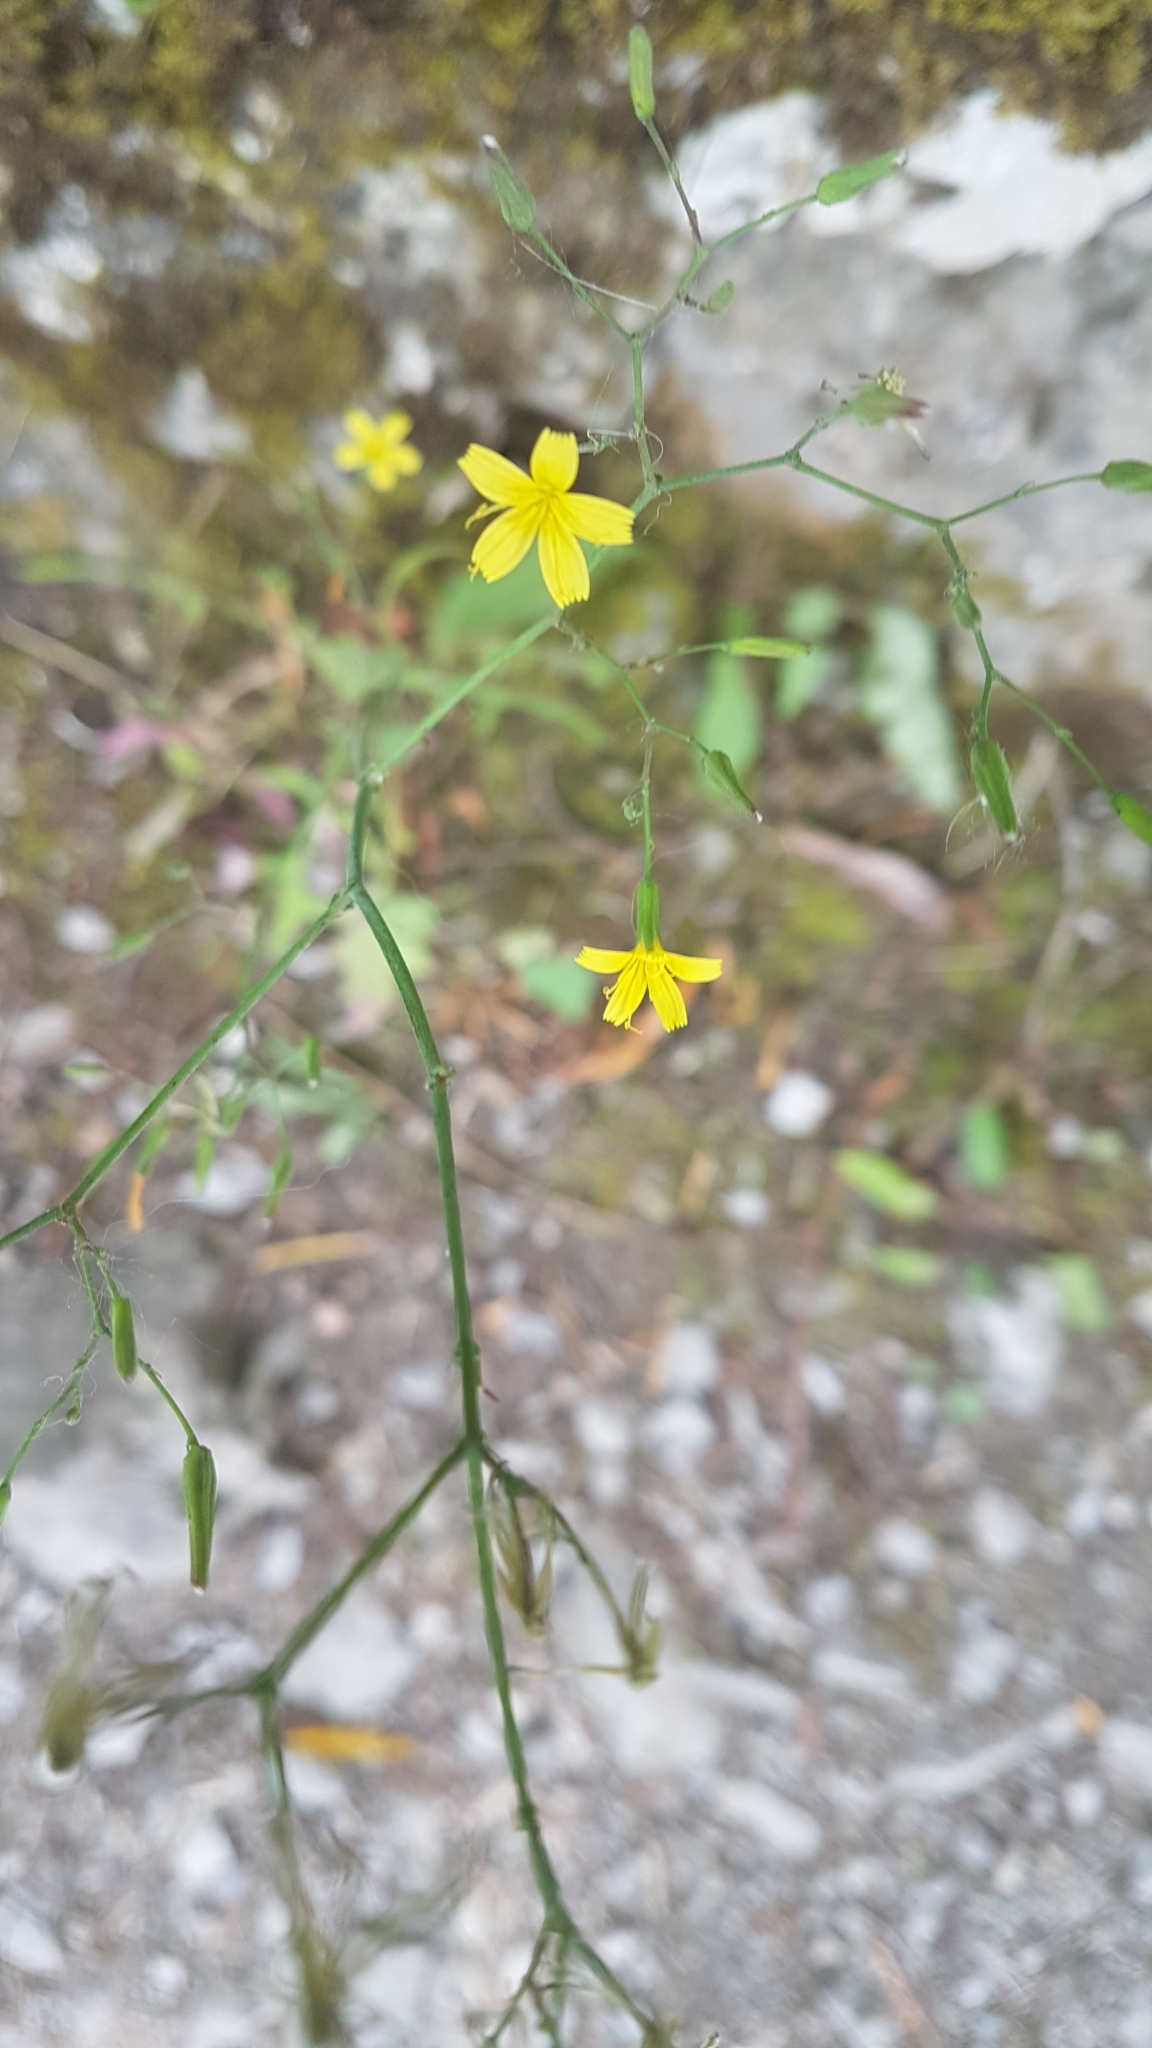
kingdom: Plantae
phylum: Tracheophyta
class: Magnoliopsida
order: Asterales
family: Asteraceae
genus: Mycelis
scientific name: Mycelis muralis
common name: Wall lettuce
